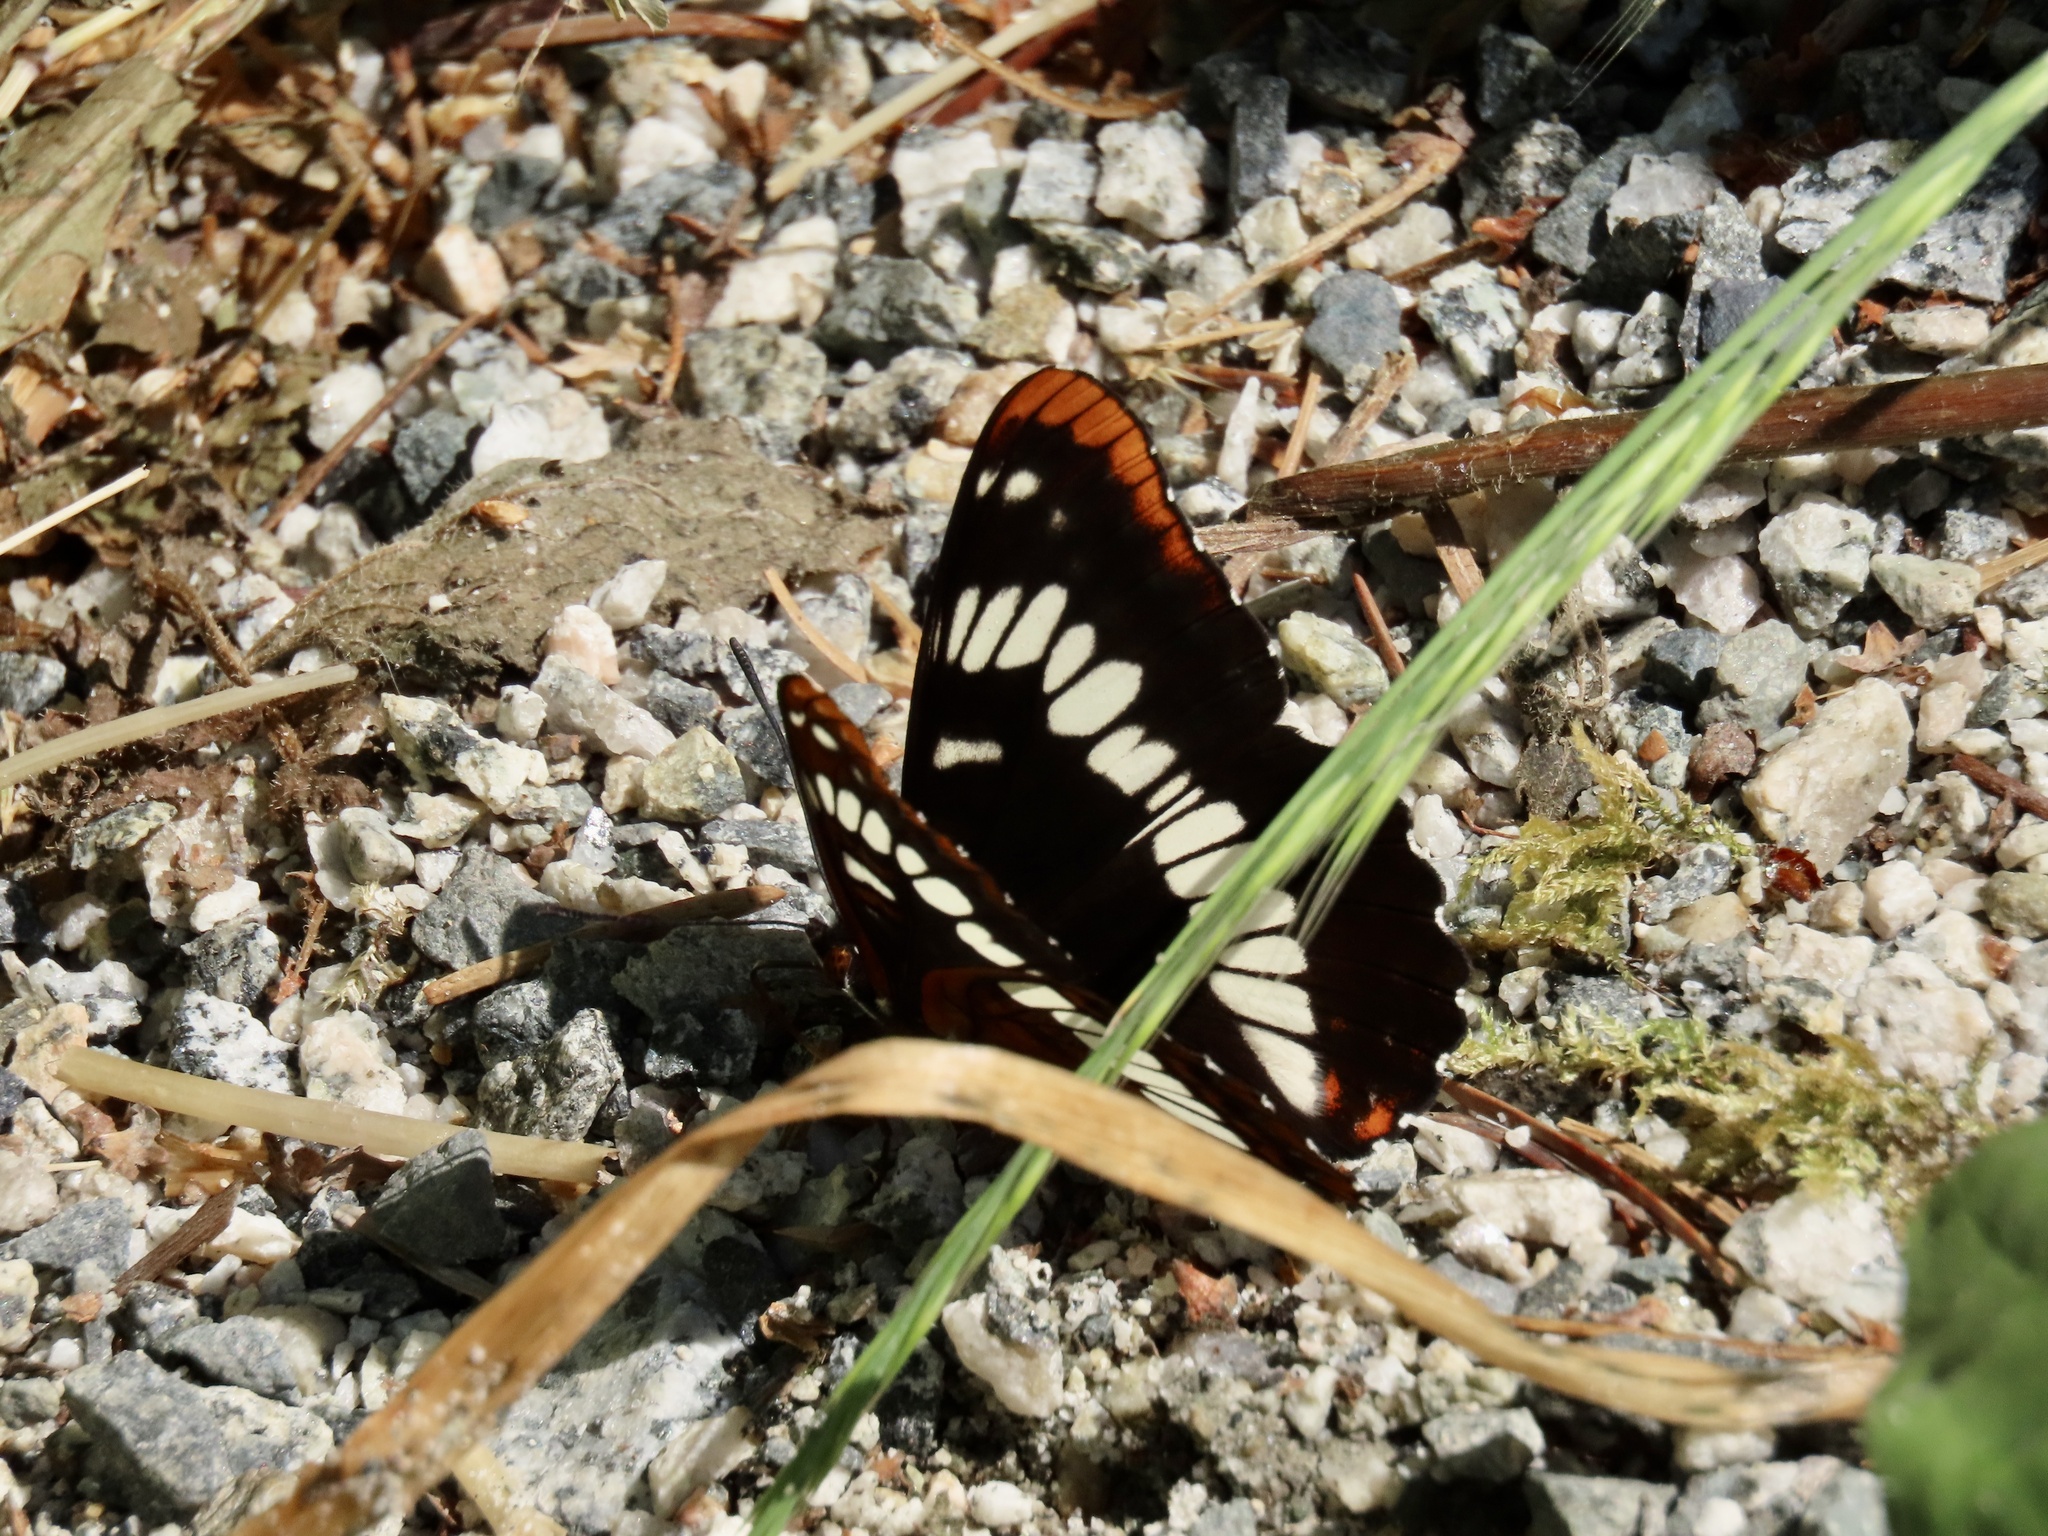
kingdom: Animalia
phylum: Arthropoda
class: Insecta
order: Lepidoptera
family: Nymphalidae
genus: Limenitis
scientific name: Limenitis lorquini
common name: Lorquin's admiral
